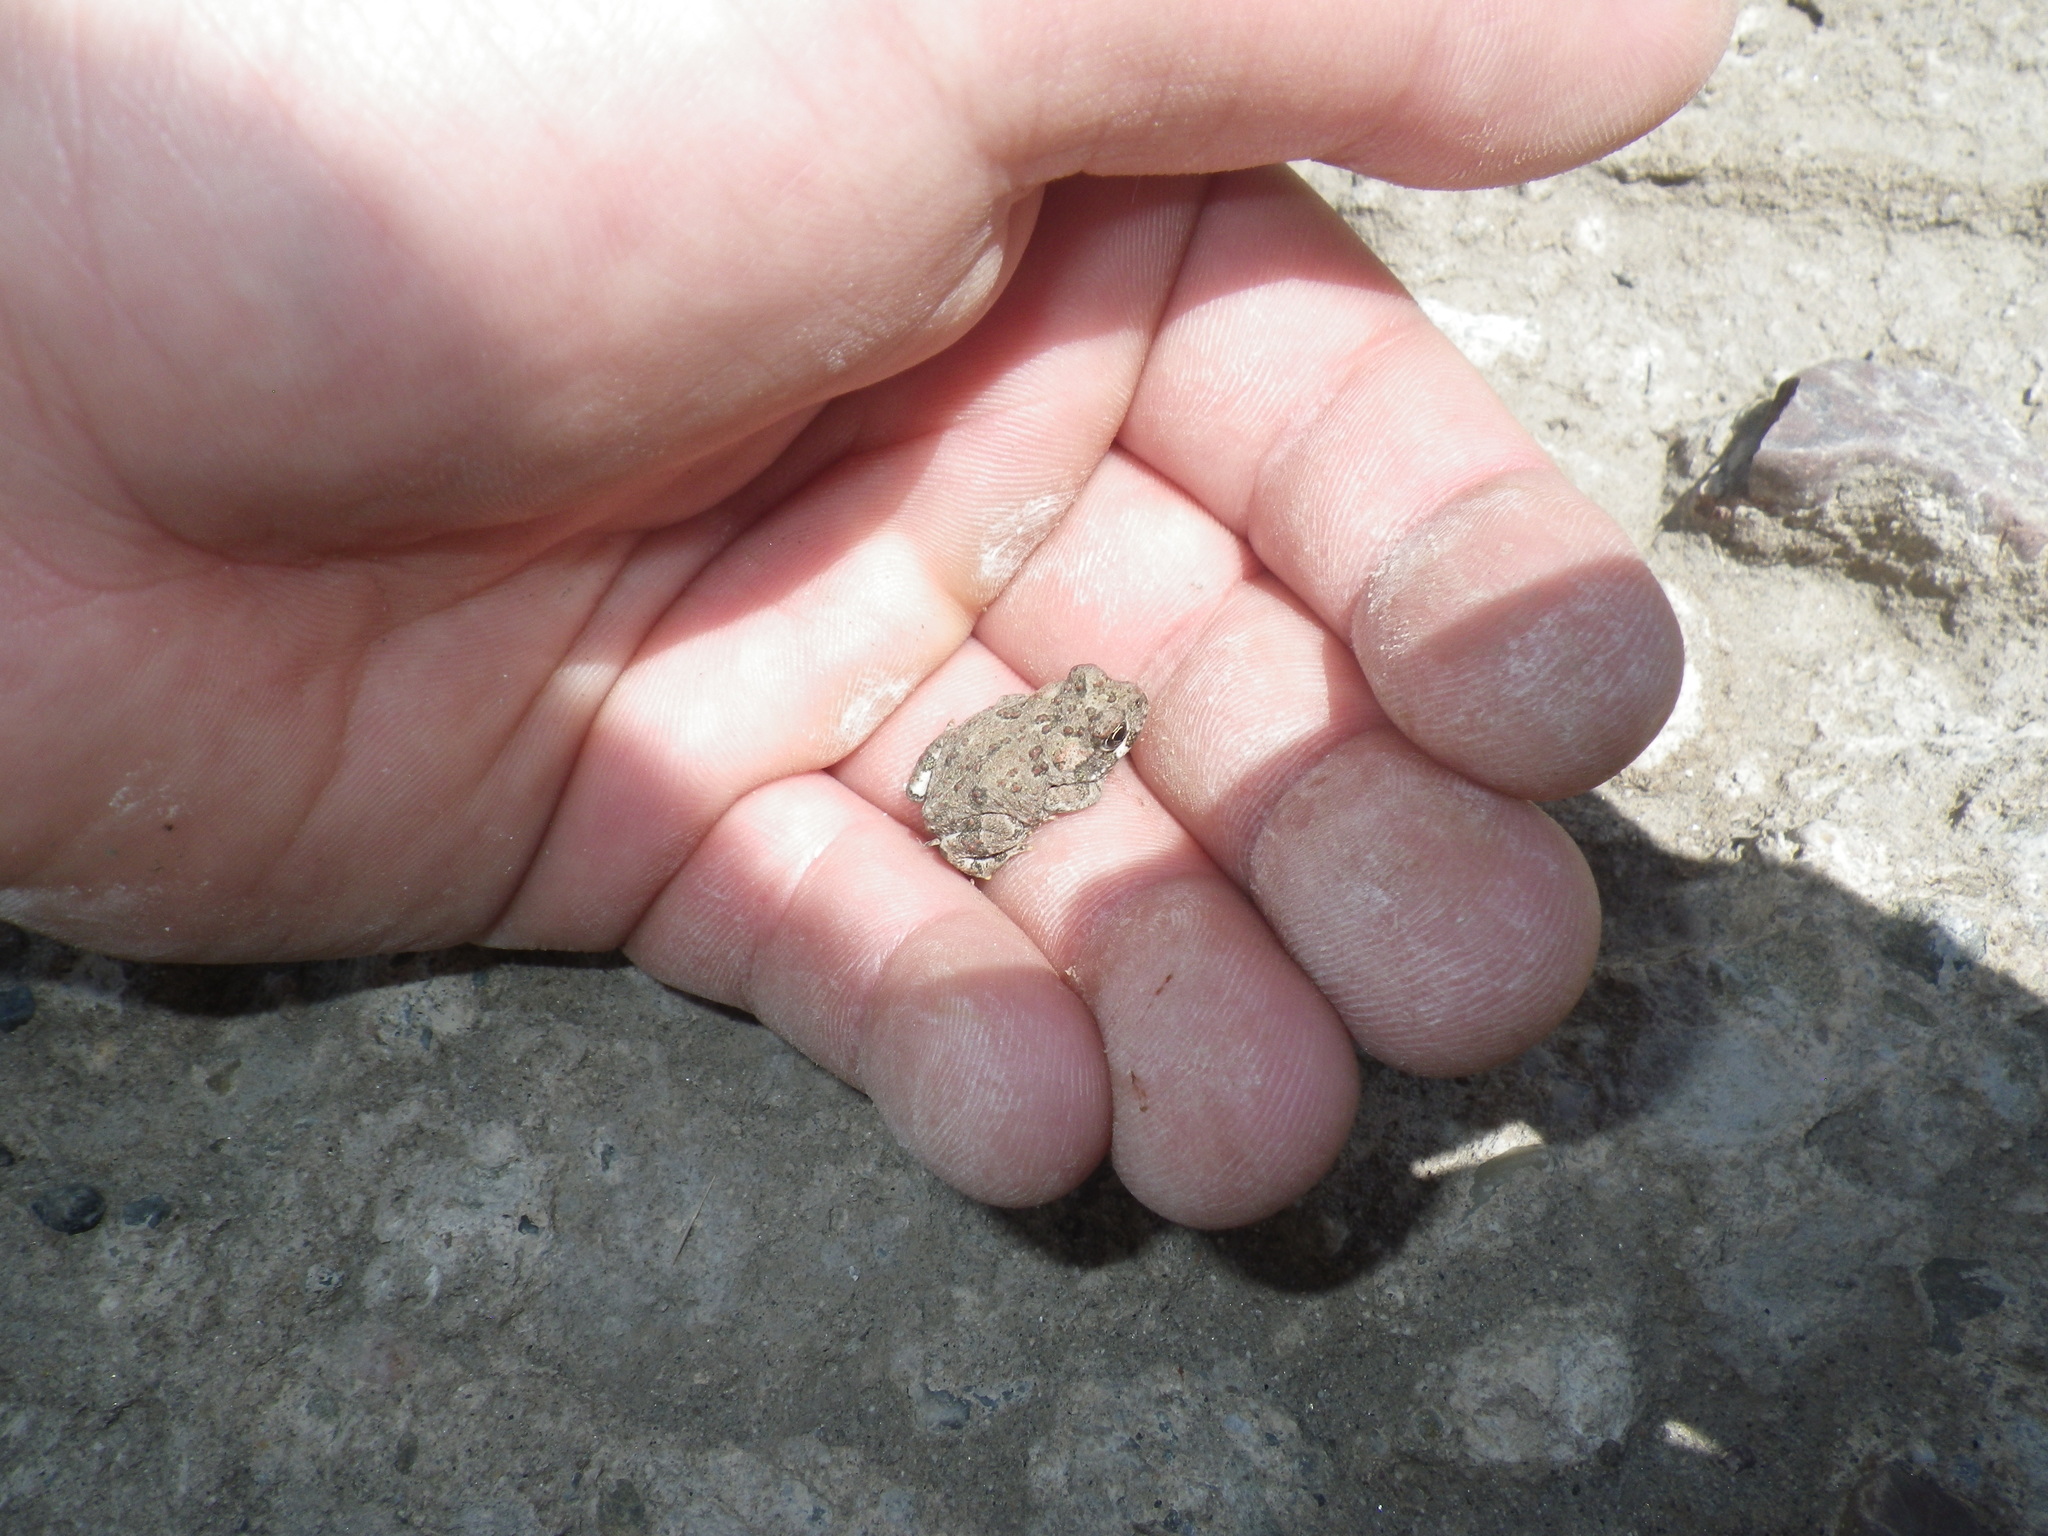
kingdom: Animalia
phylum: Chordata
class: Amphibia
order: Anura
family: Bufonidae
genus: Anaxyrus
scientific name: Anaxyrus boreas
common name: Western toad
